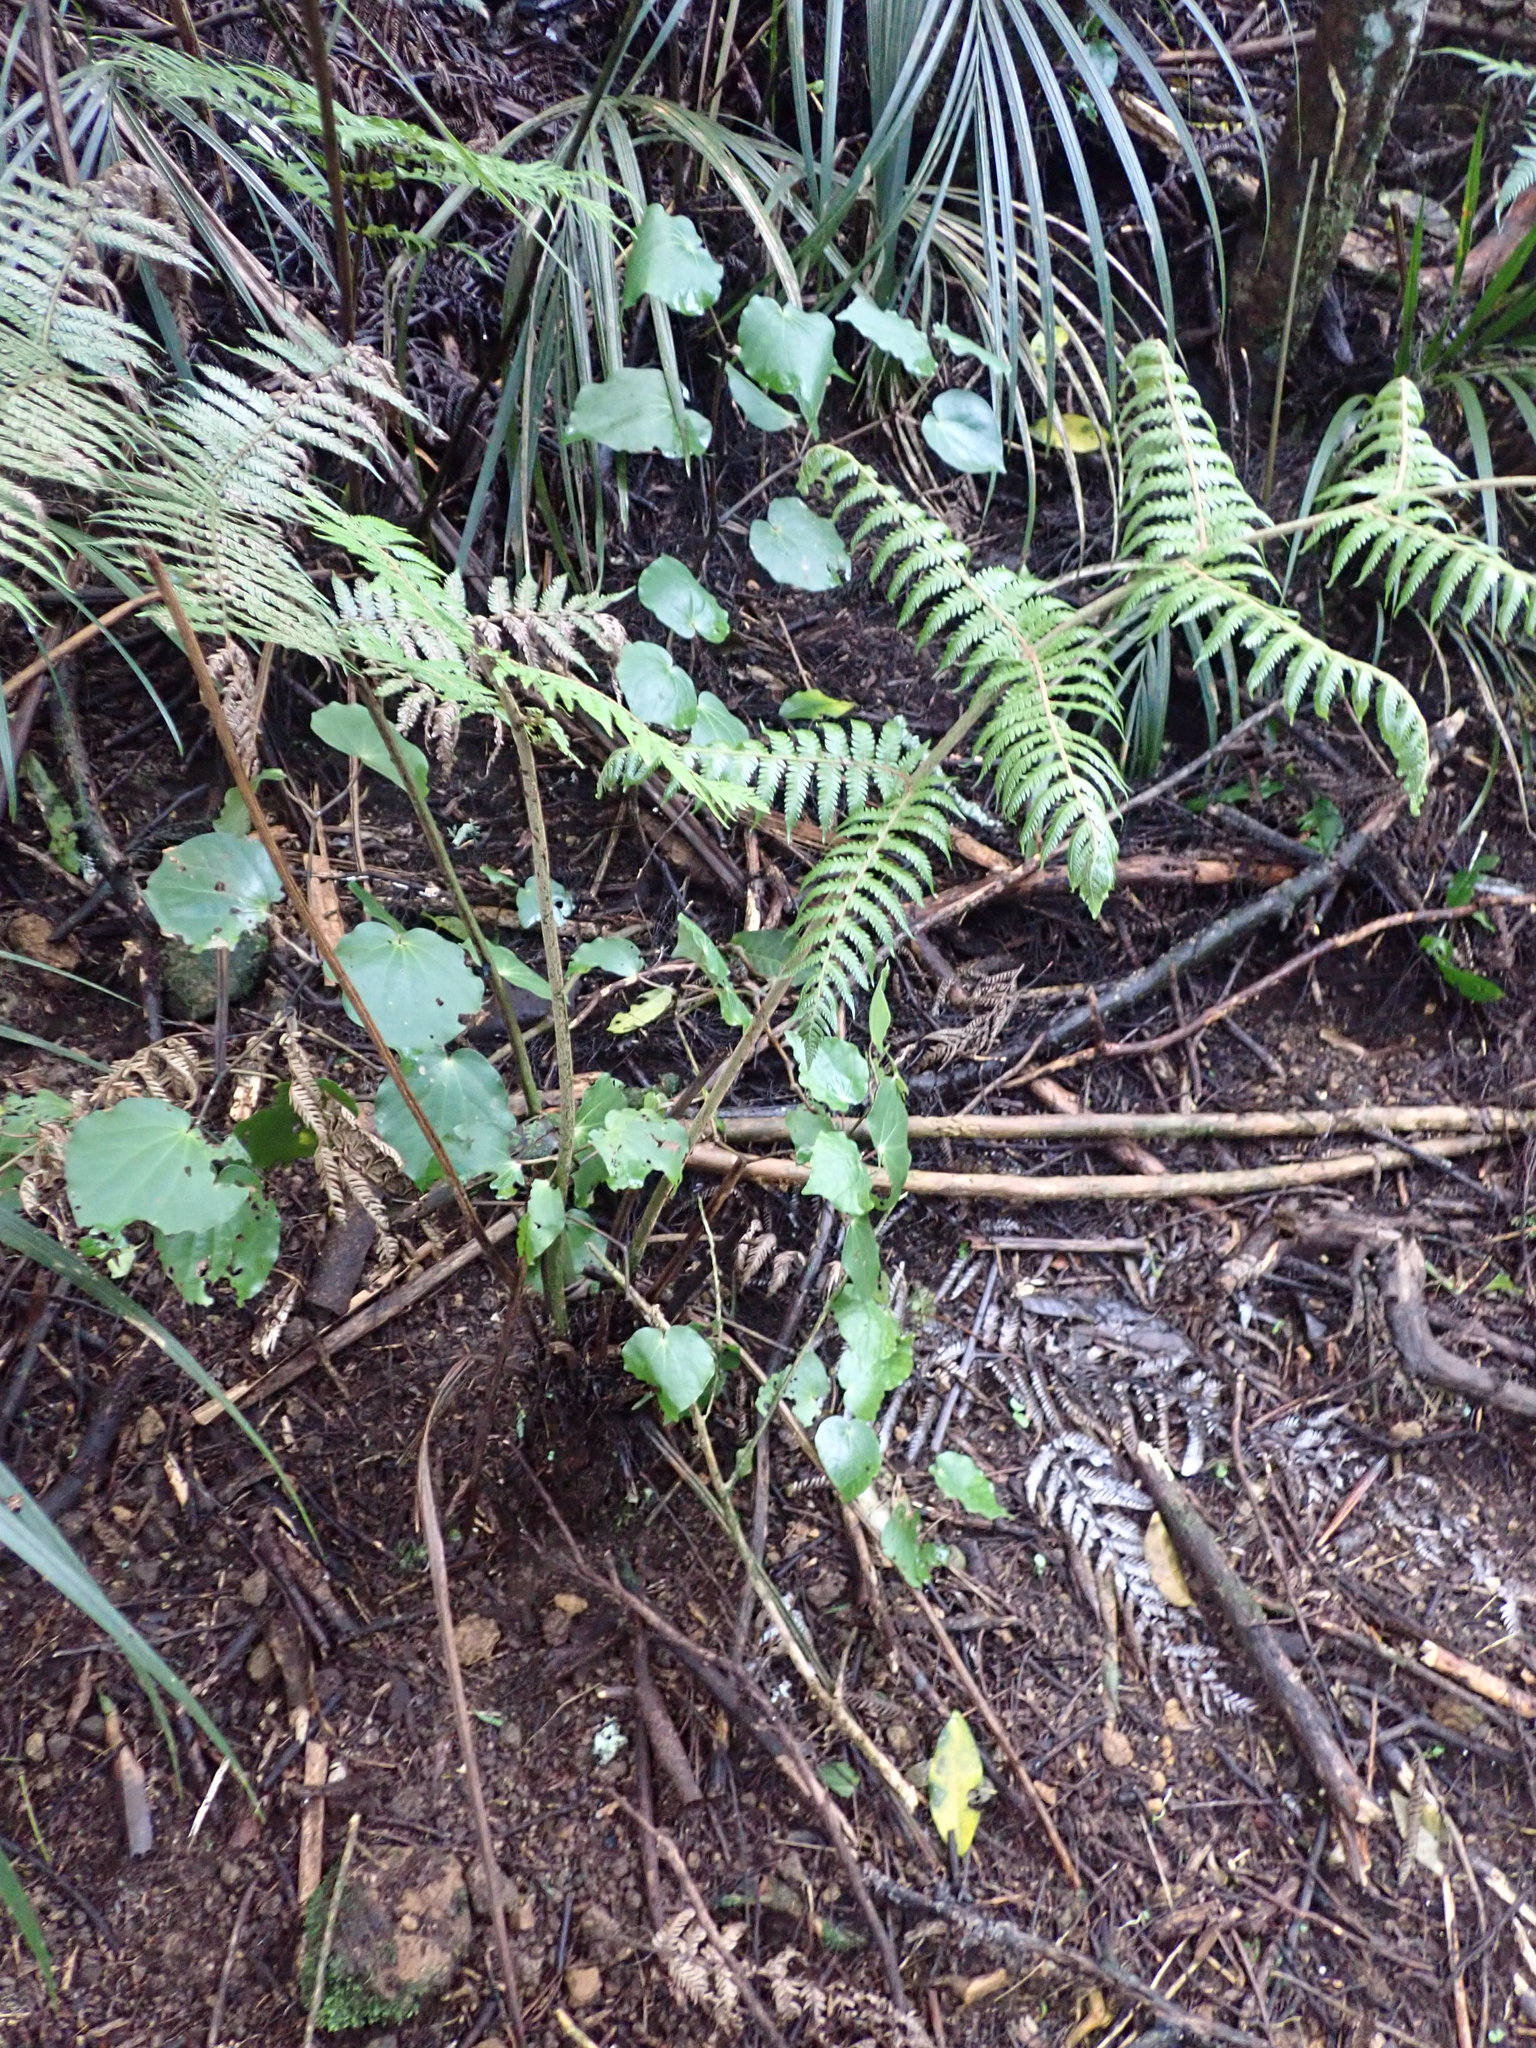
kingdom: Plantae
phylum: Tracheophyta
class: Polypodiopsida
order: Cyatheales
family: Cyatheaceae
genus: Alsophila
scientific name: Alsophila dealbata
